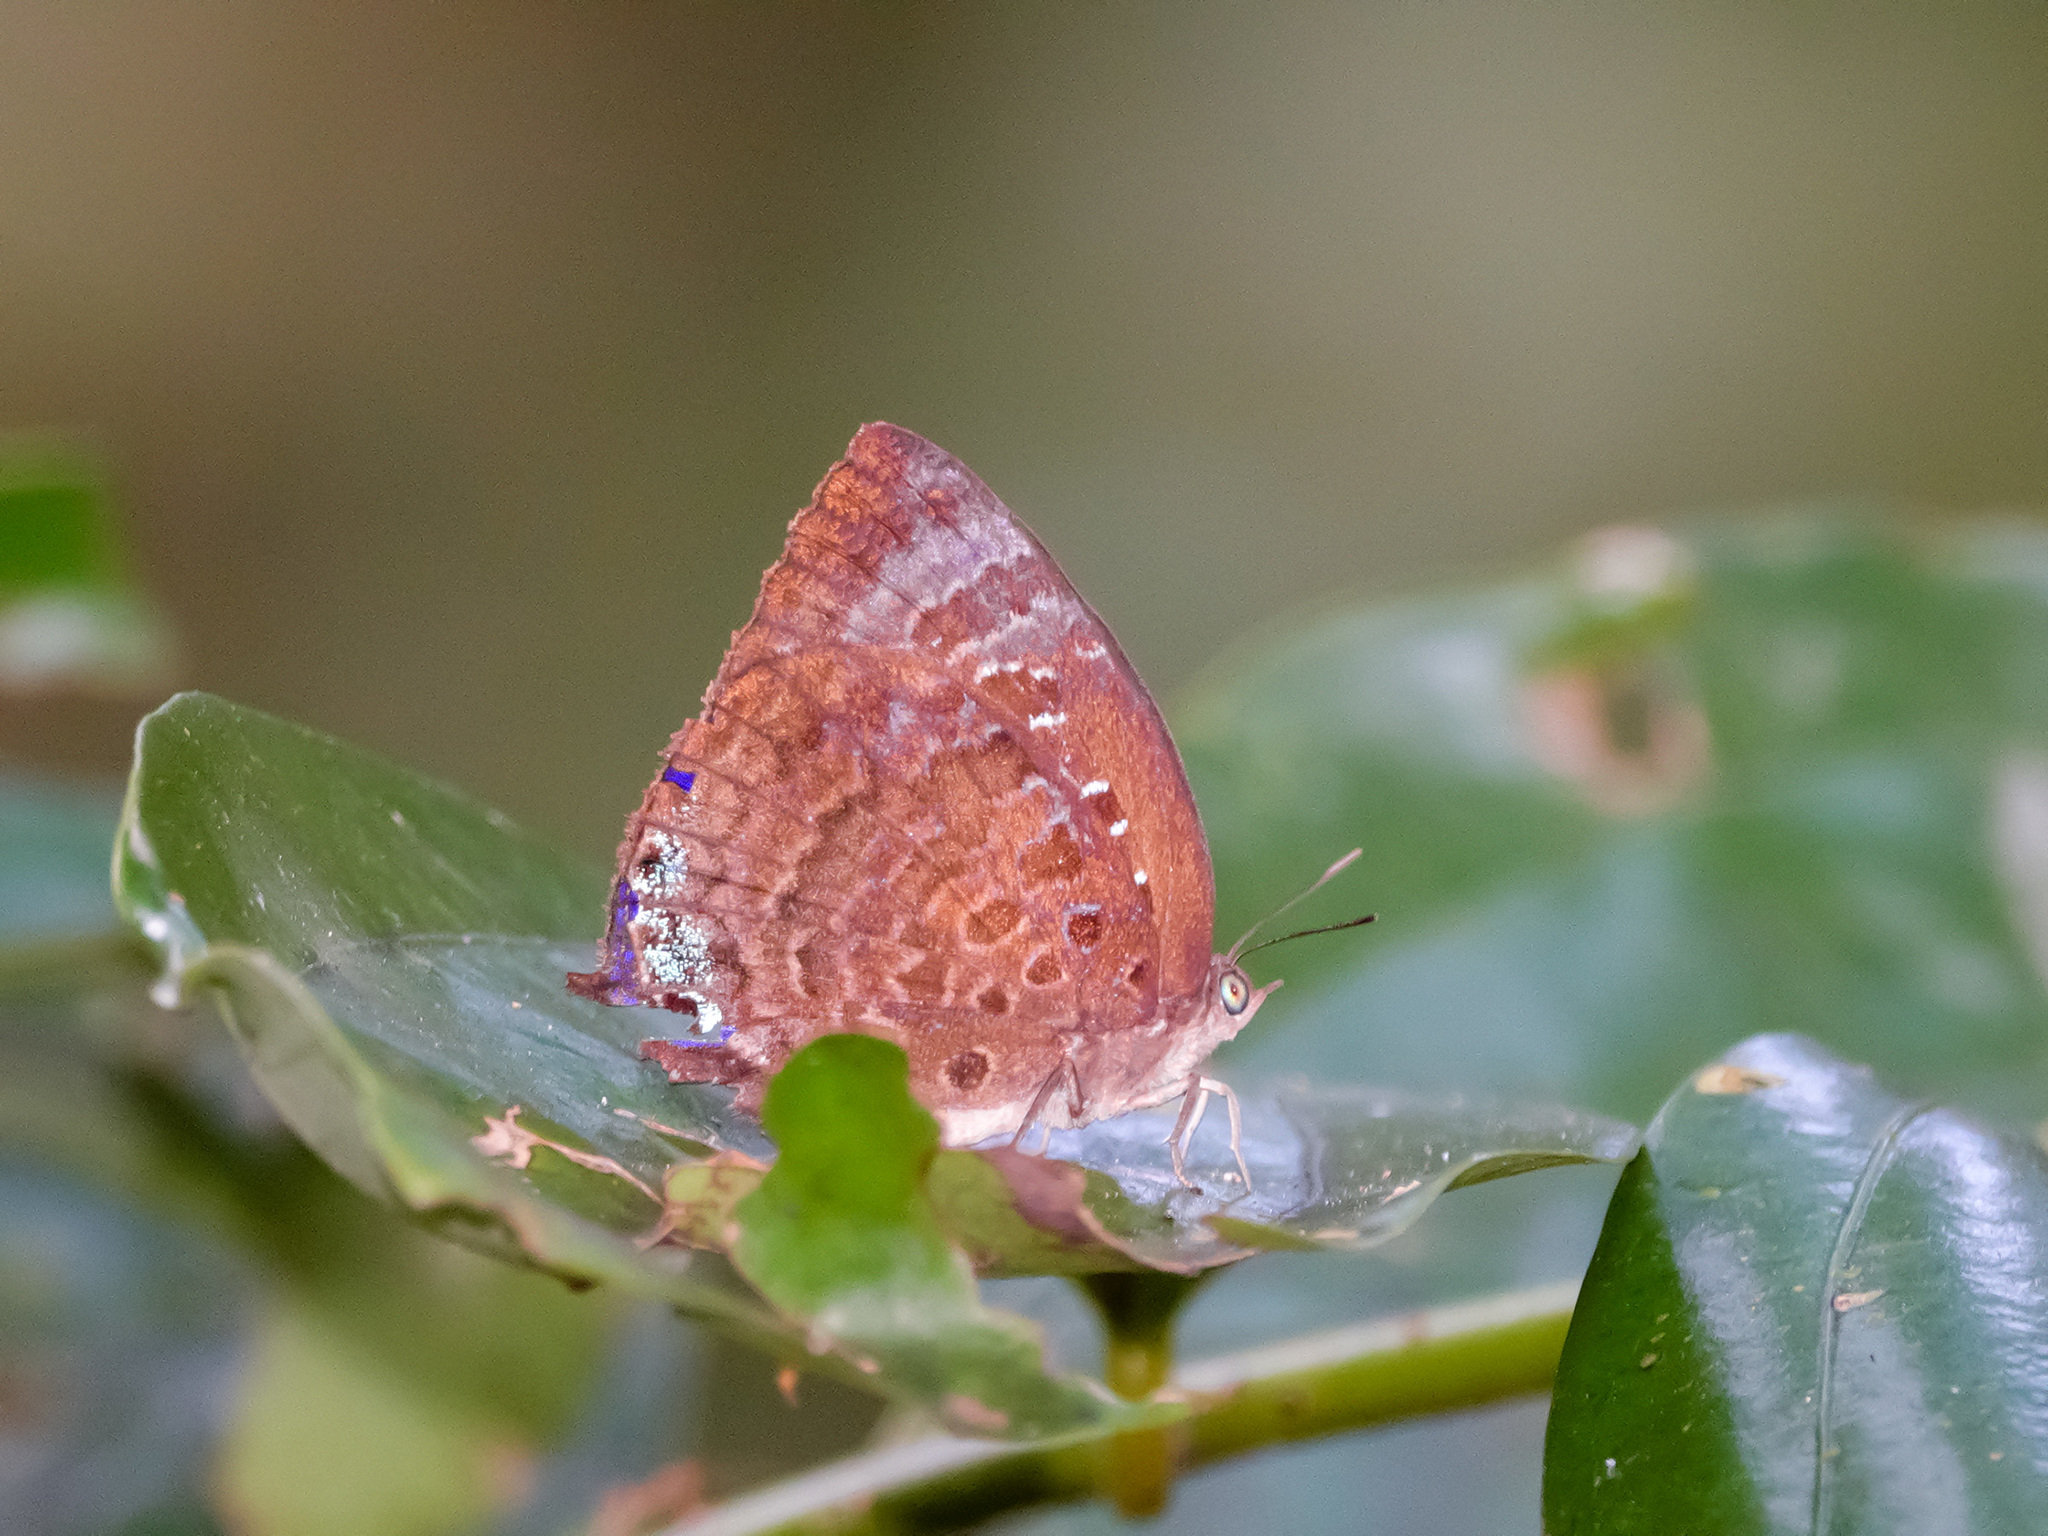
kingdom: Animalia
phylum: Arthropoda
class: Insecta
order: Lepidoptera
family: Lycaenidae
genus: Arhopala
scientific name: Arhopala centaurus
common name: Dull oak-blue
